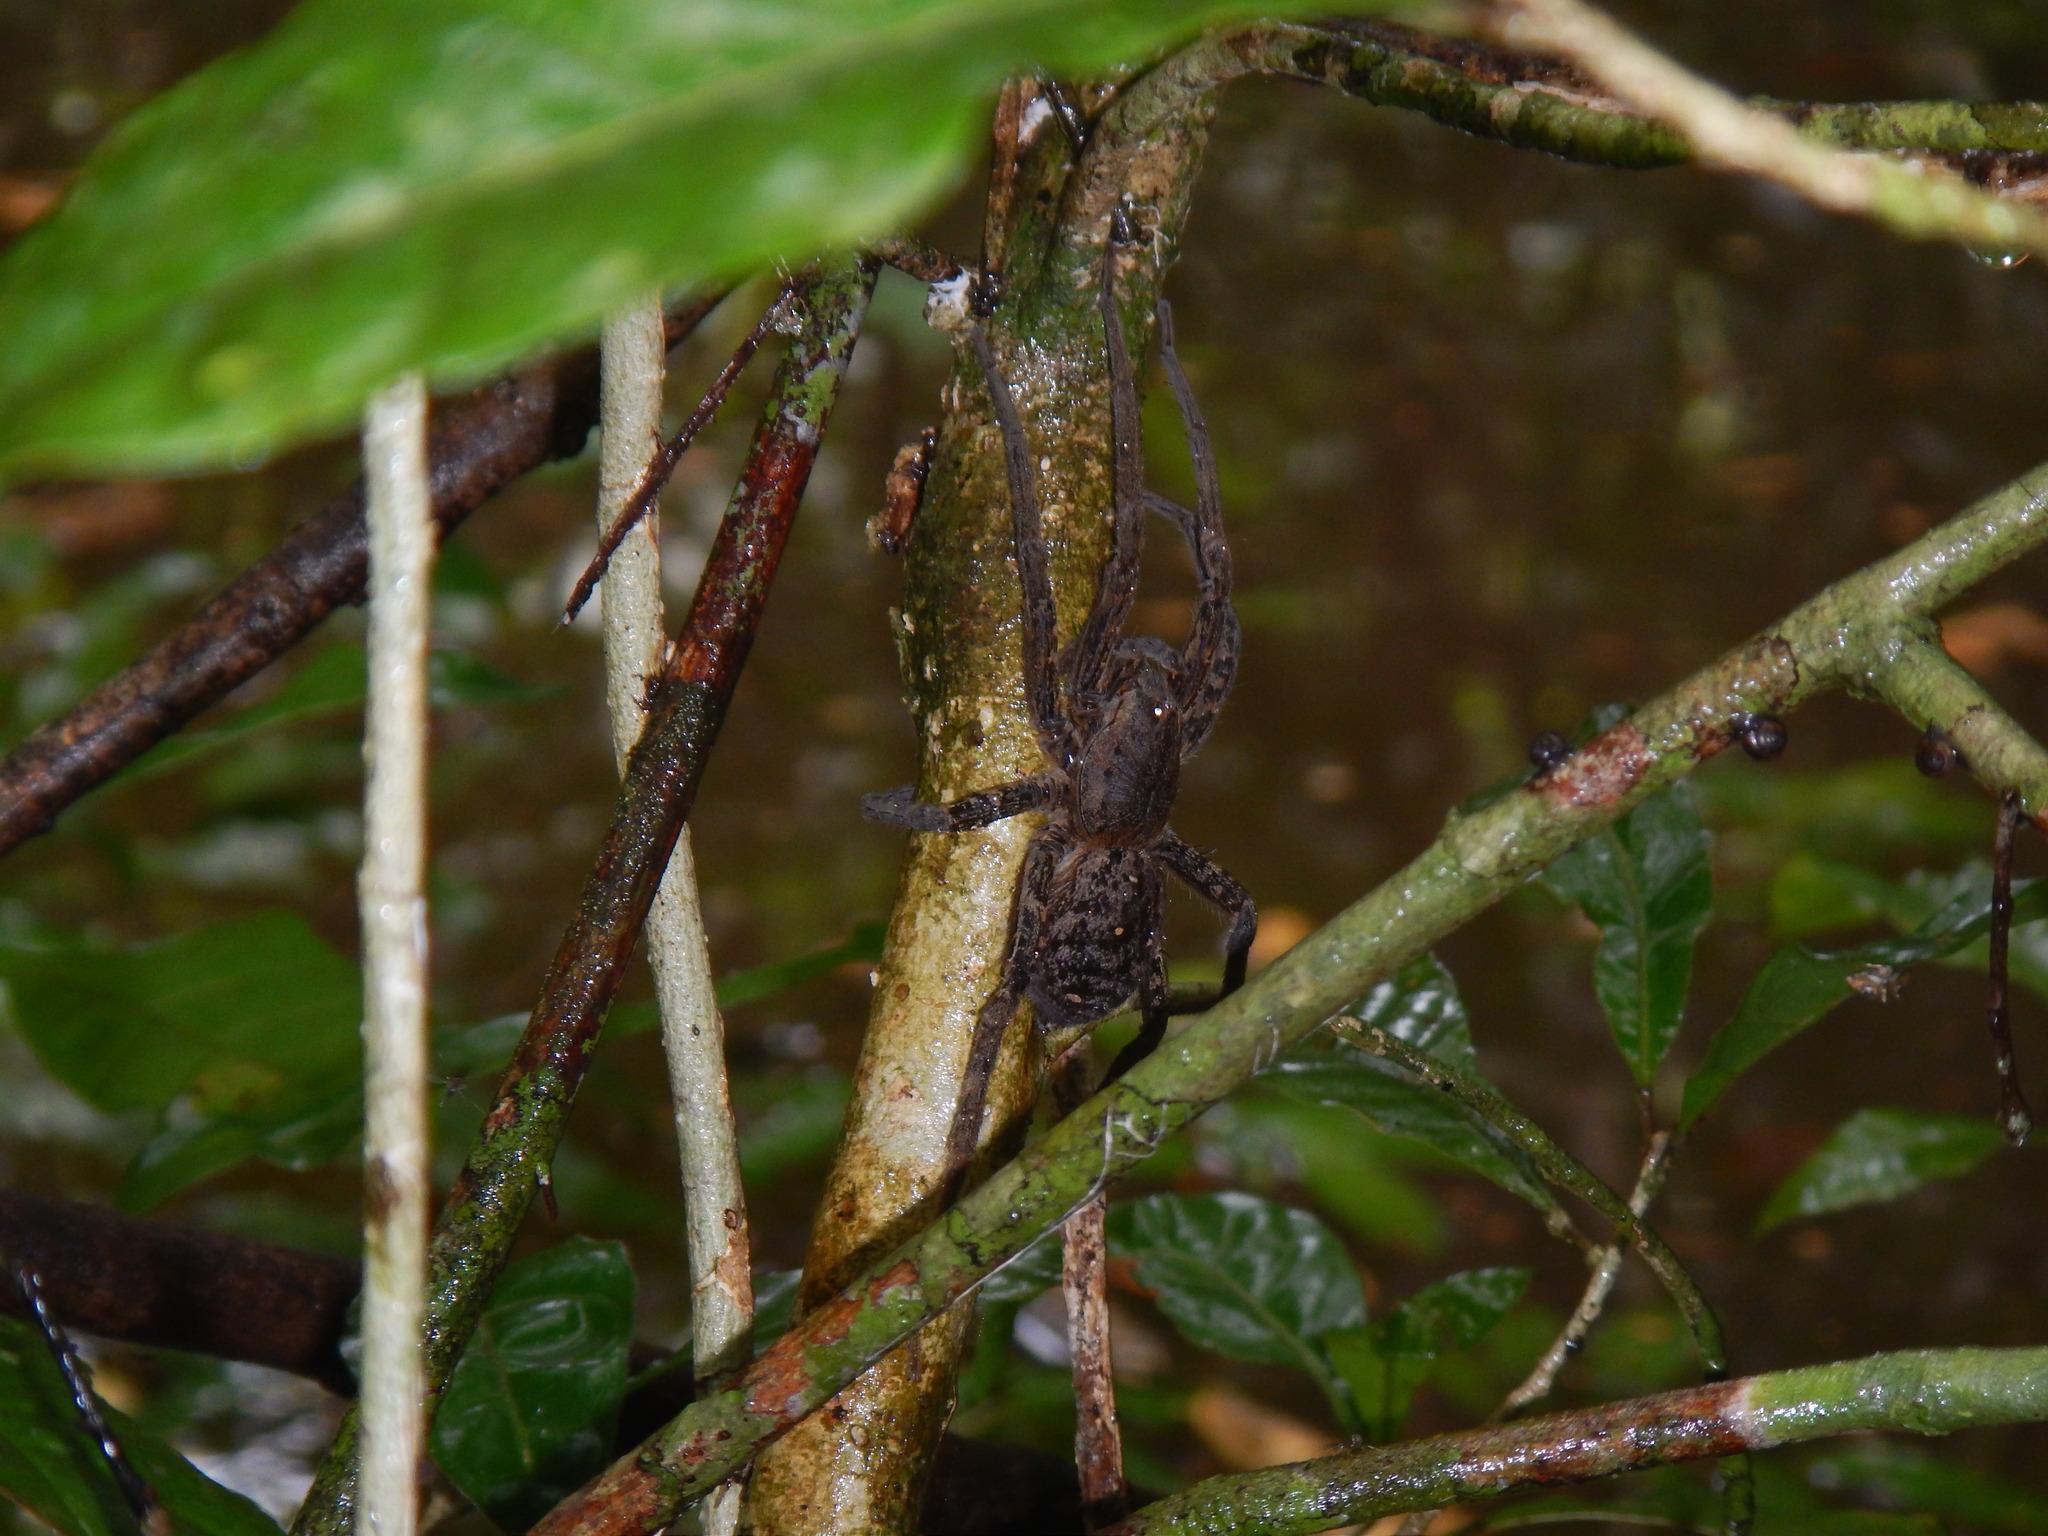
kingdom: Animalia
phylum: Arthropoda
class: Arachnida
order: Araneae
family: Ctenidae
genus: Ancylometes
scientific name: Ancylometes
